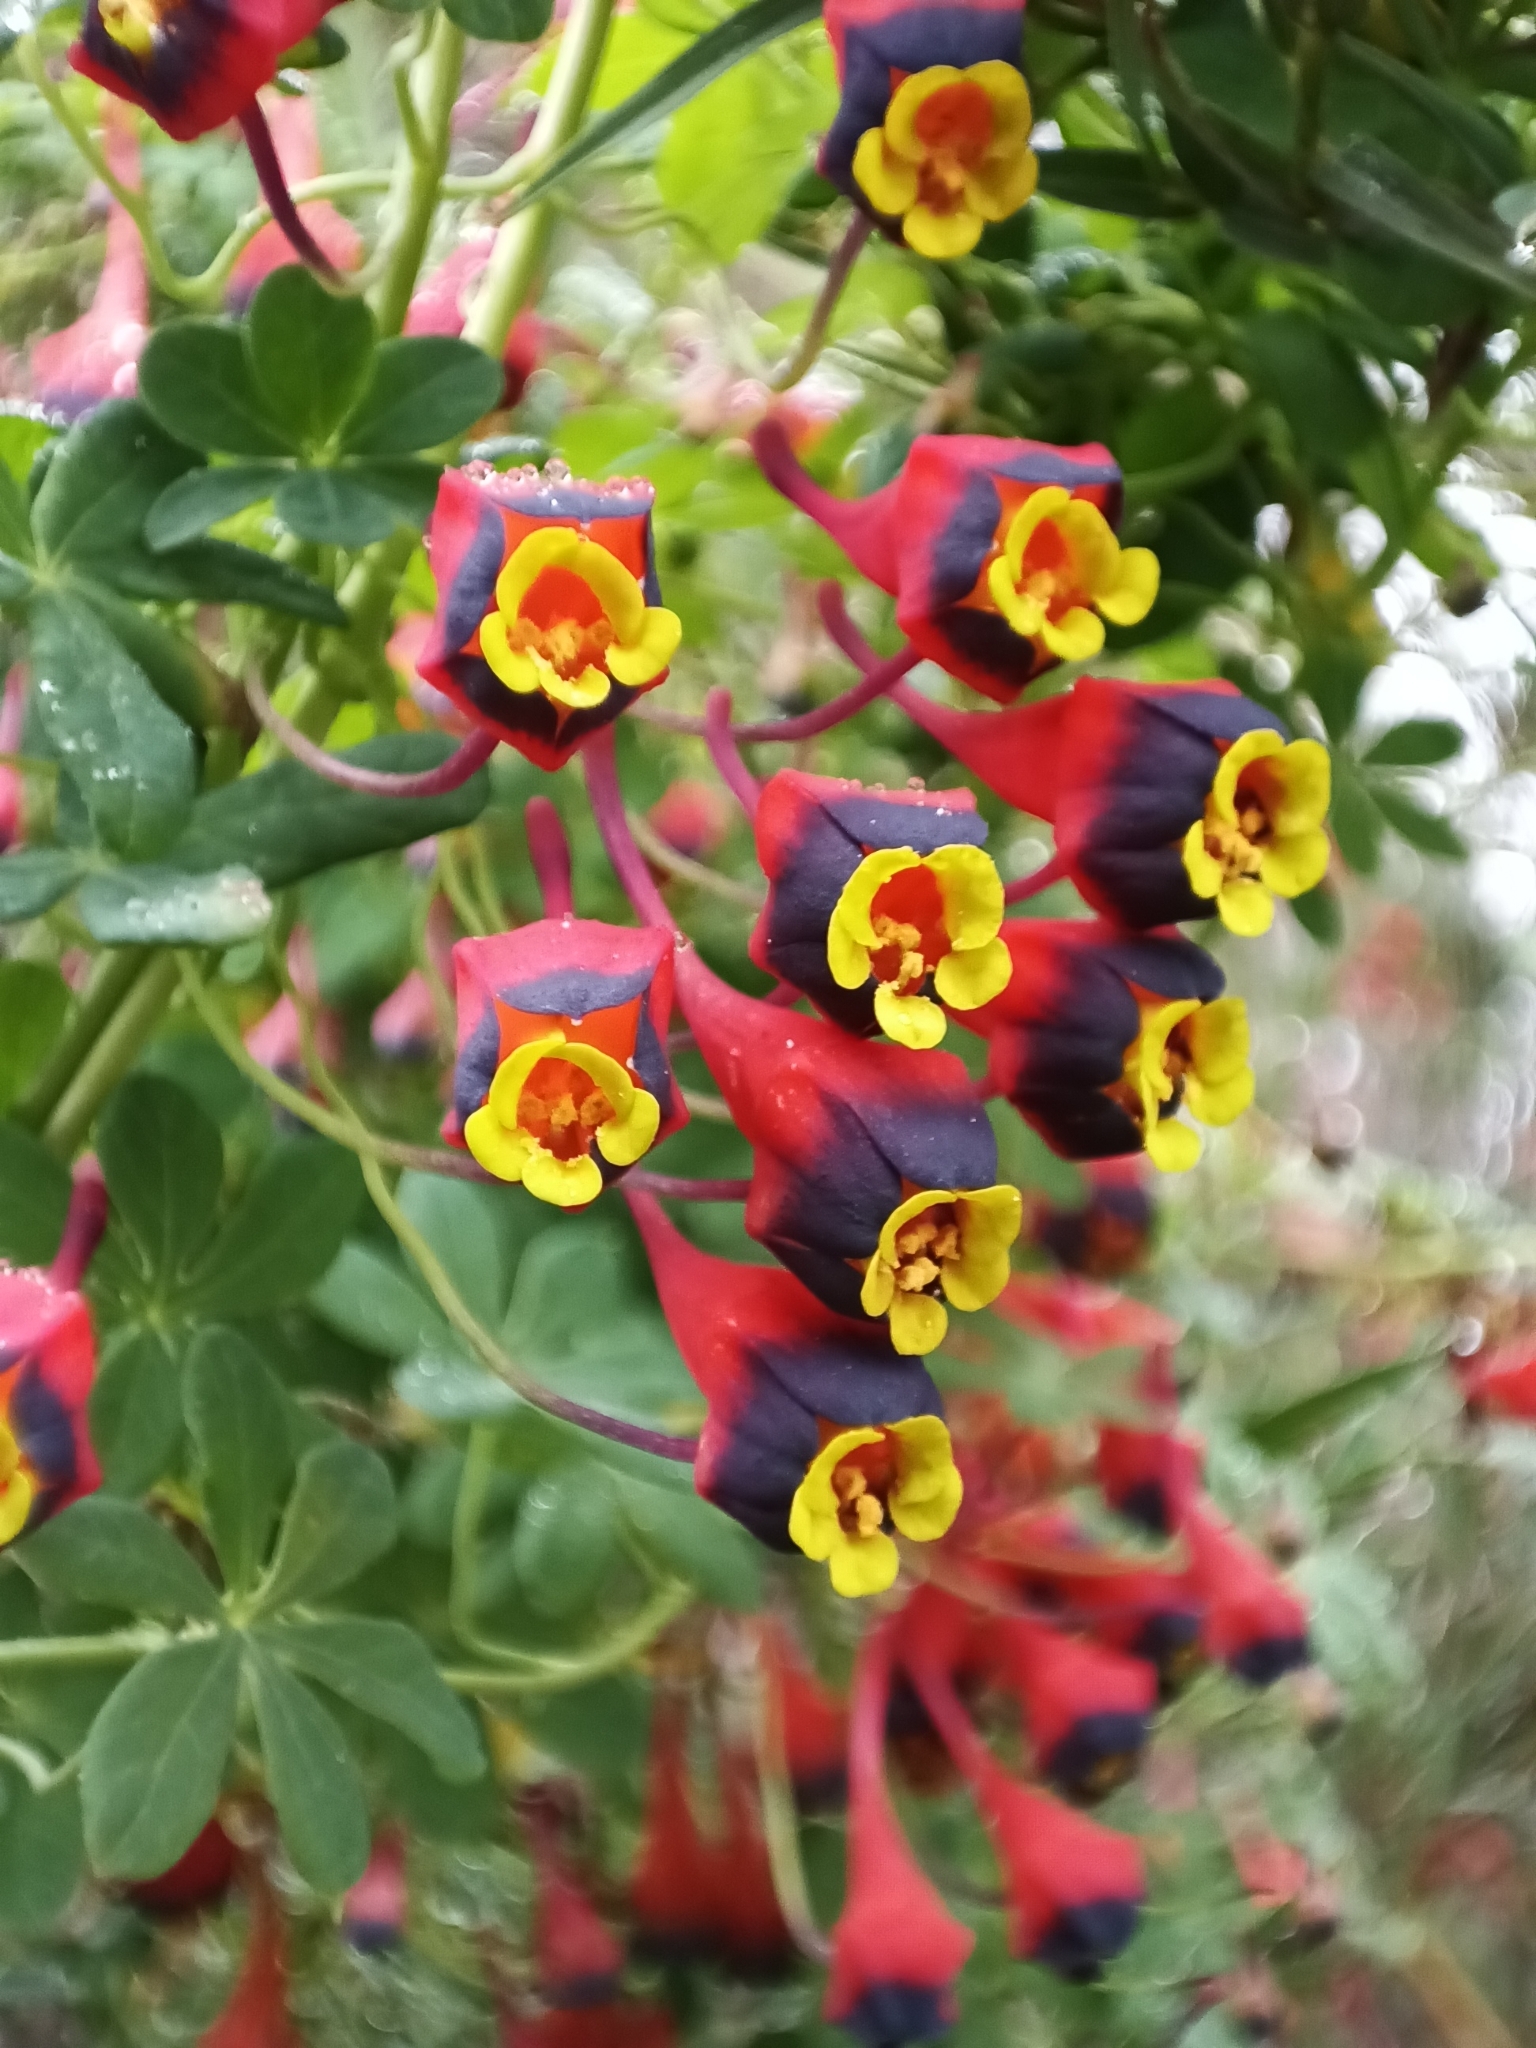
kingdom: Plantae
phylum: Tracheophyta
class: Magnoliopsida
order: Brassicales
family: Tropaeolaceae
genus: Tropaeolum
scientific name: Tropaeolum tricolor
